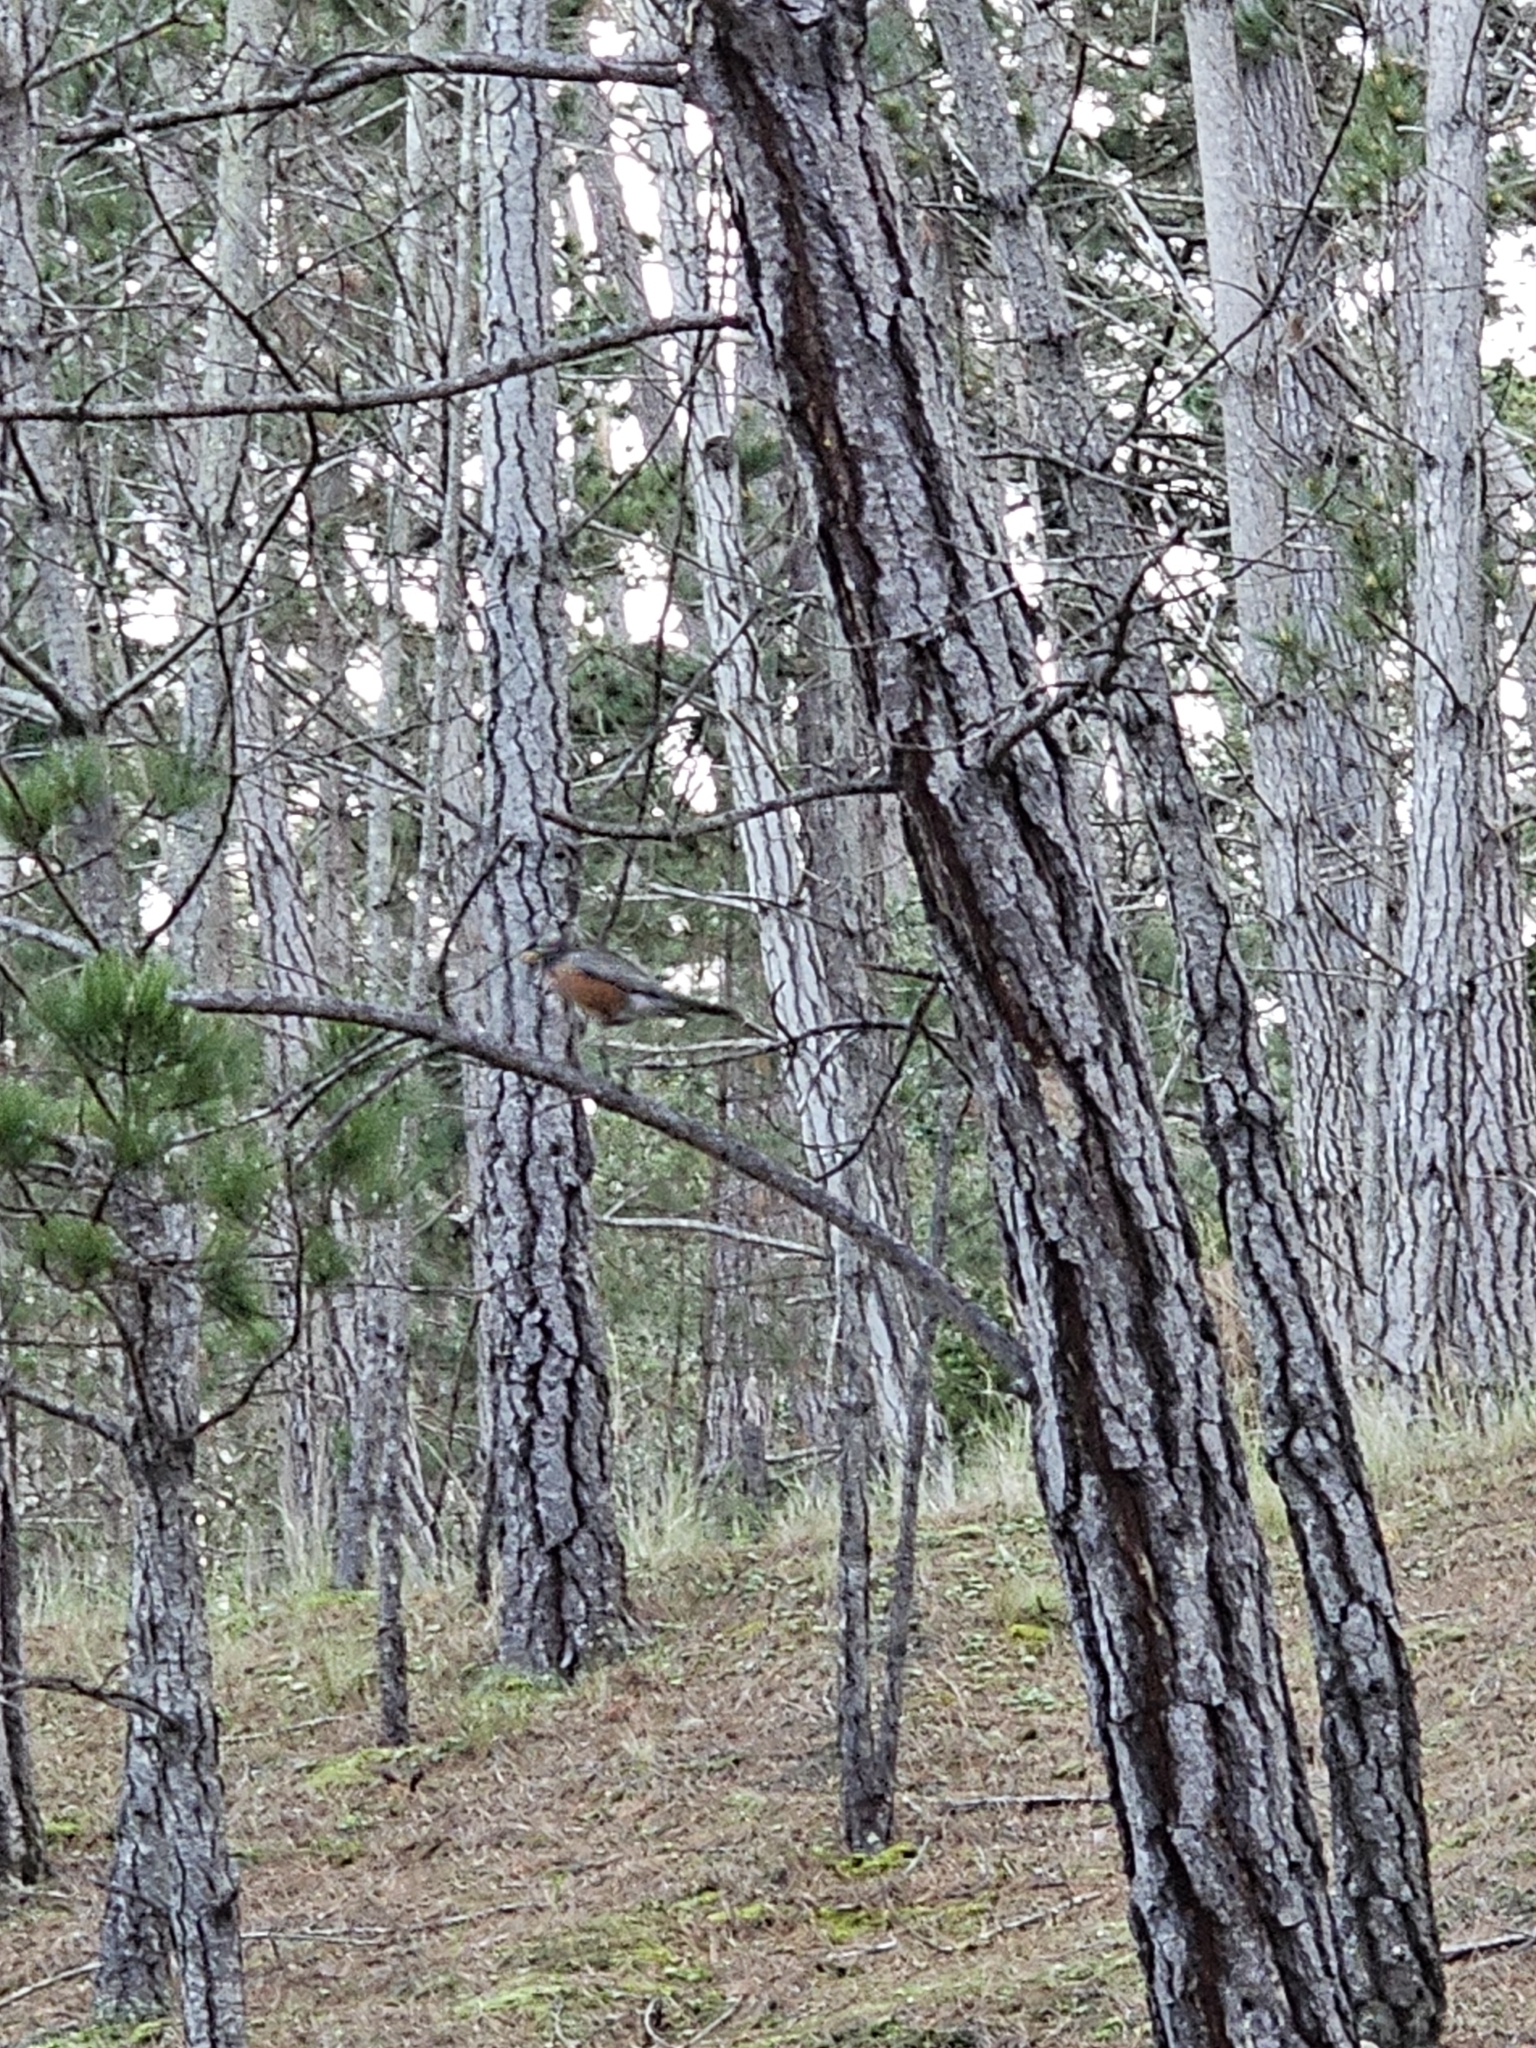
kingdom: Animalia
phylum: Chordata
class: Aves
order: Passeriformes
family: Turdidae
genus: Turdus
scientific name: Turdus migratorius
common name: American robin
